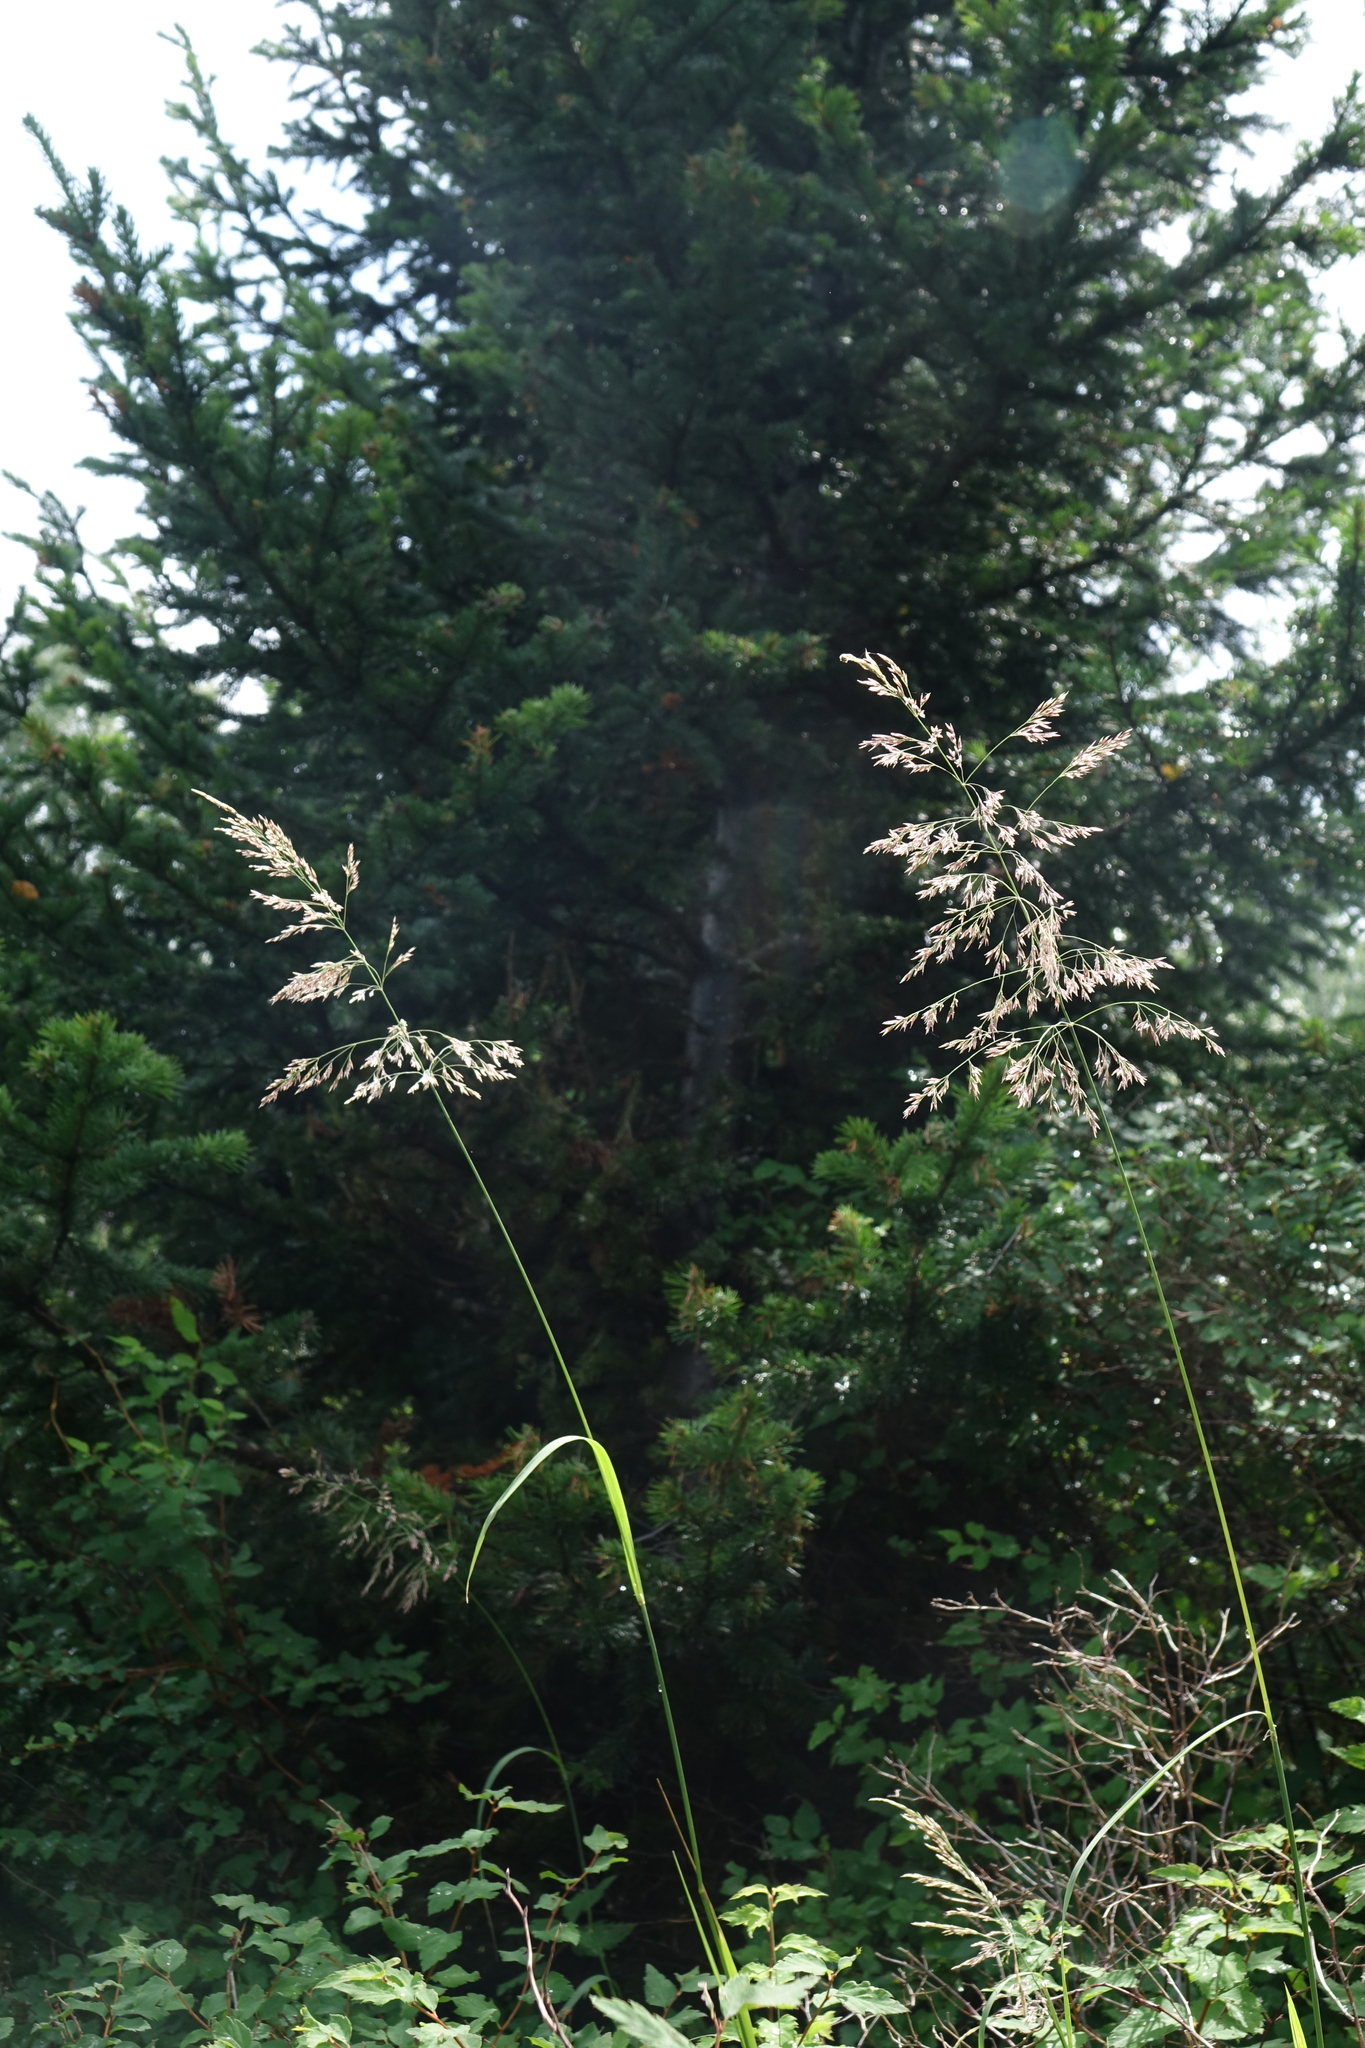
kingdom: Plantae
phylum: Tracheophyta
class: Liliopsida
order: Poales
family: Poaceae
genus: Milium
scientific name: Milium effusum
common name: Wood millet
